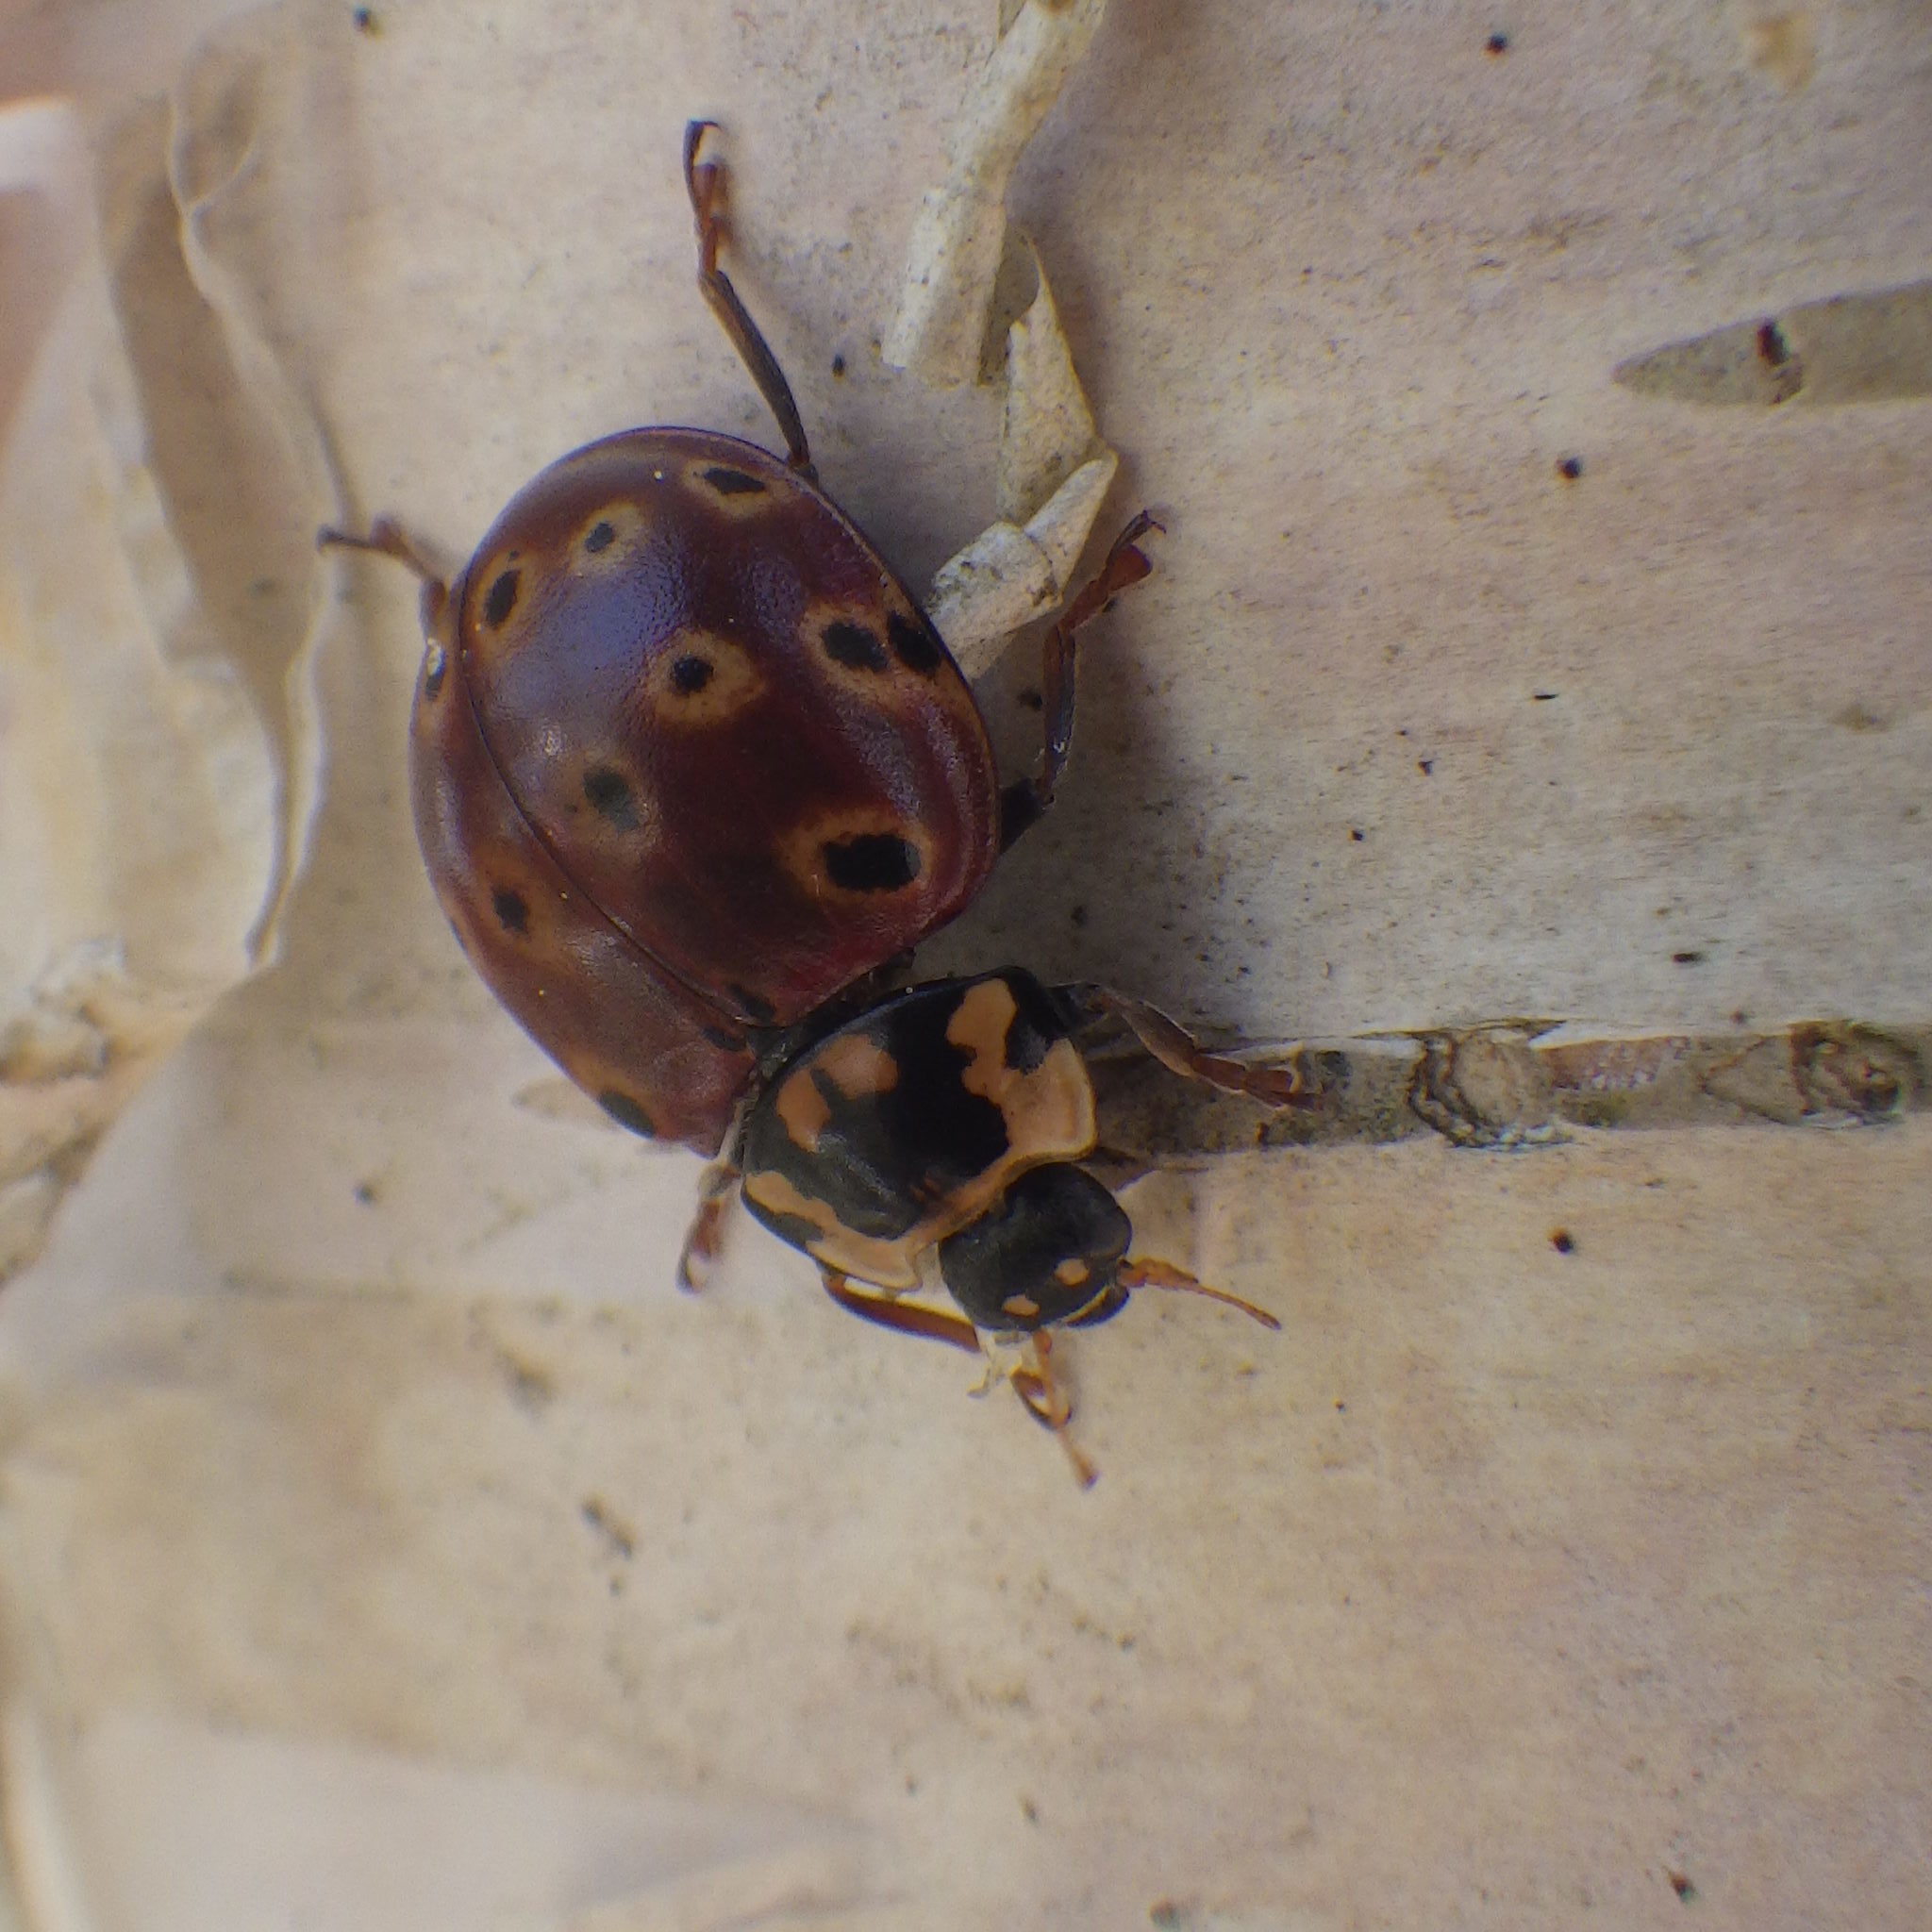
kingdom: Animalia
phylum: Arthropoda
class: Insecta
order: Coleoptera
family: Coccinellidae
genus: Anatis
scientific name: Anatis mali
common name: Eye-spotted lady beetle
